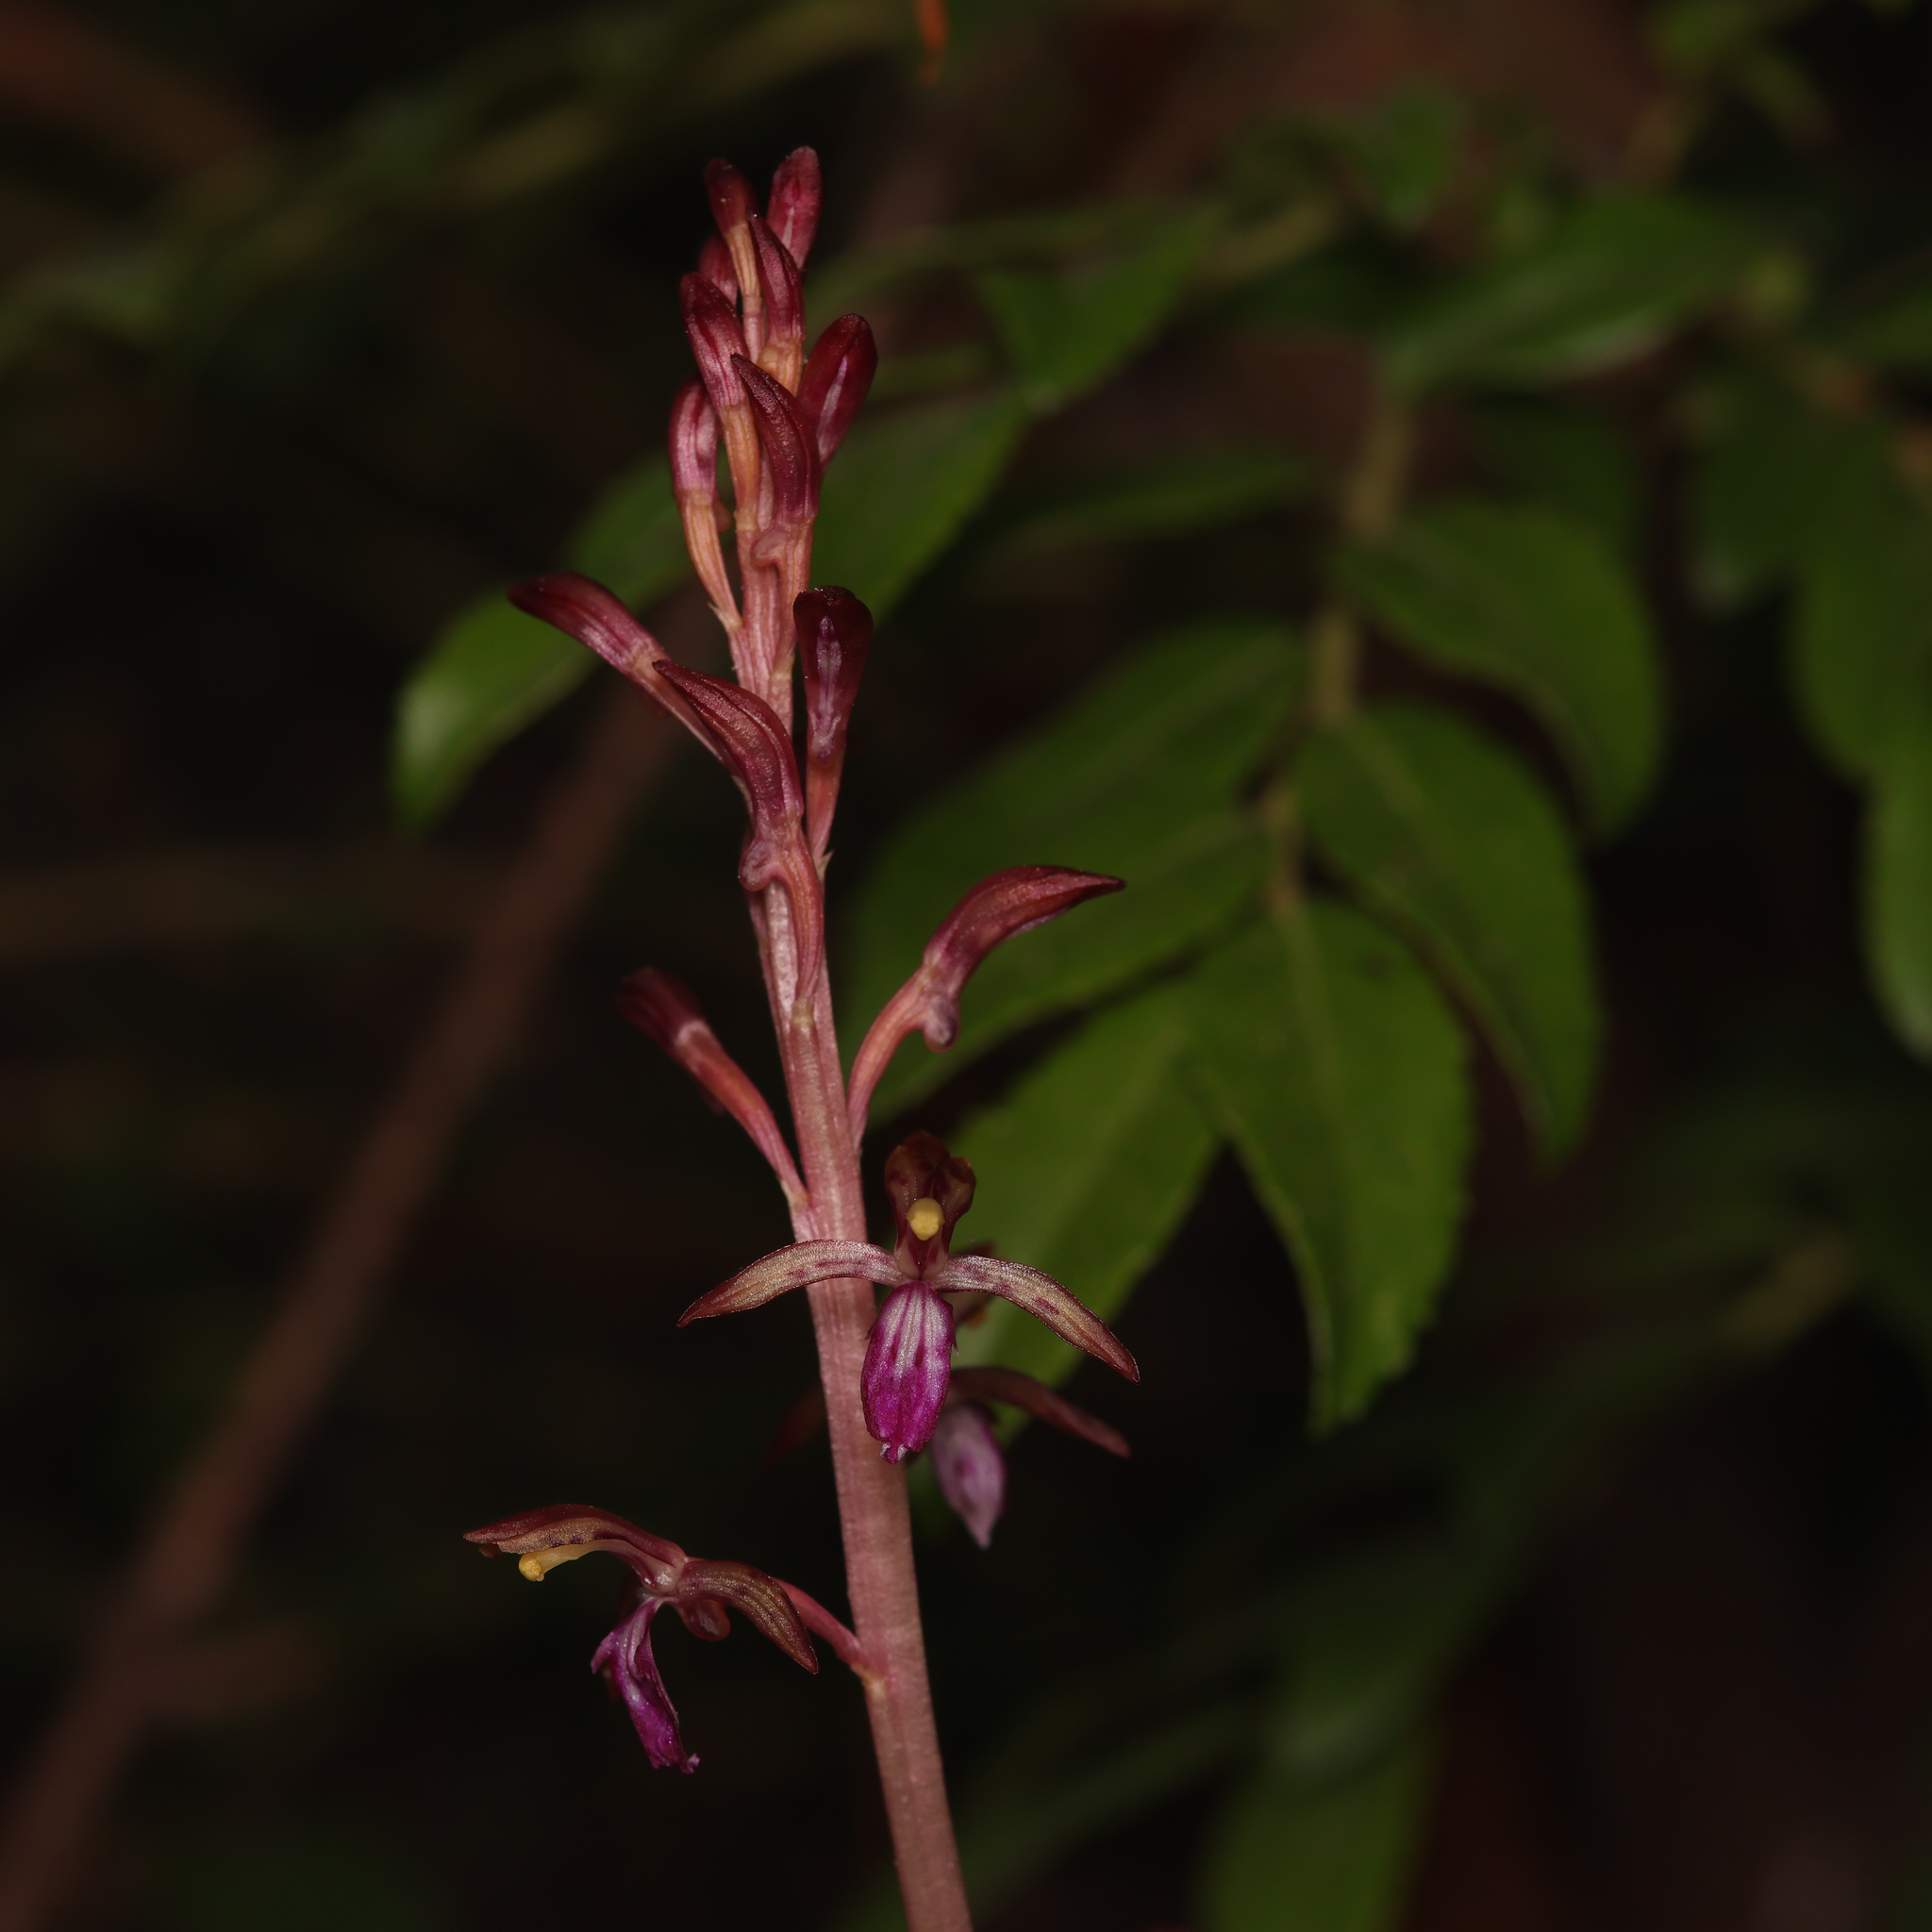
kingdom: Plantae
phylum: Tracheophyta
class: Liliopsida
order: Asparagales
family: Orchidaceae
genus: Corallorhiza
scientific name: Corallorhiza mertensiana
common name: Pacific coralroot
